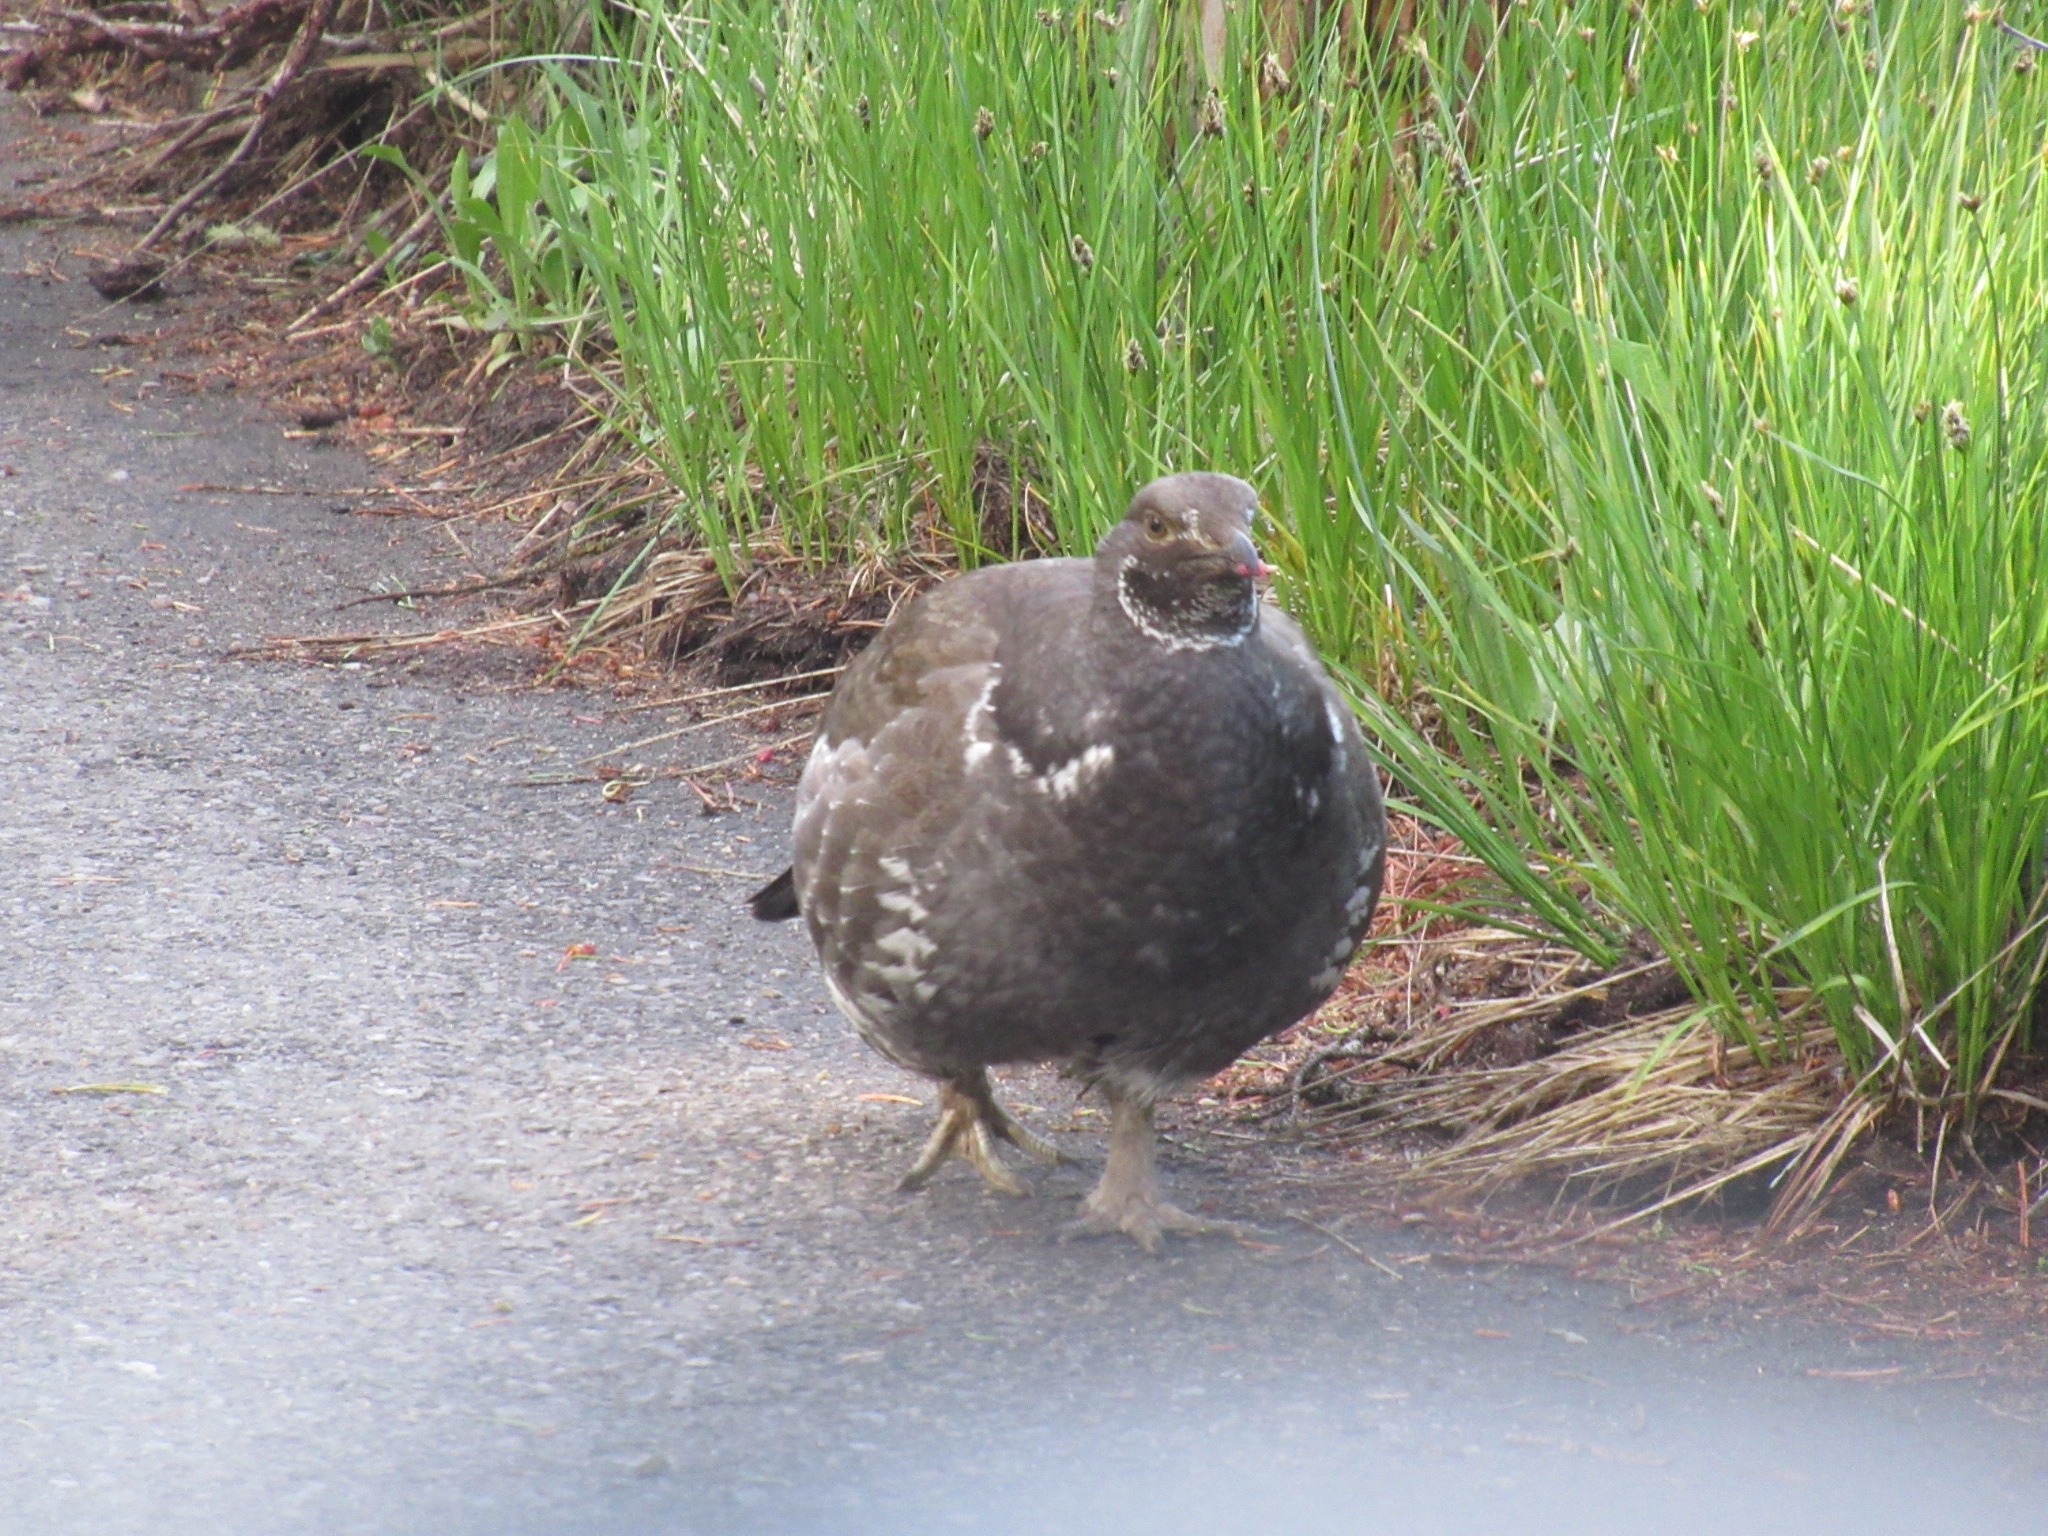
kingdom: Animalia
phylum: Chordata
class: Aves
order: Galliformes
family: Phasianidae
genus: Dendragapus
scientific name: Dendragapus obscurus
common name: Dusky grouse
